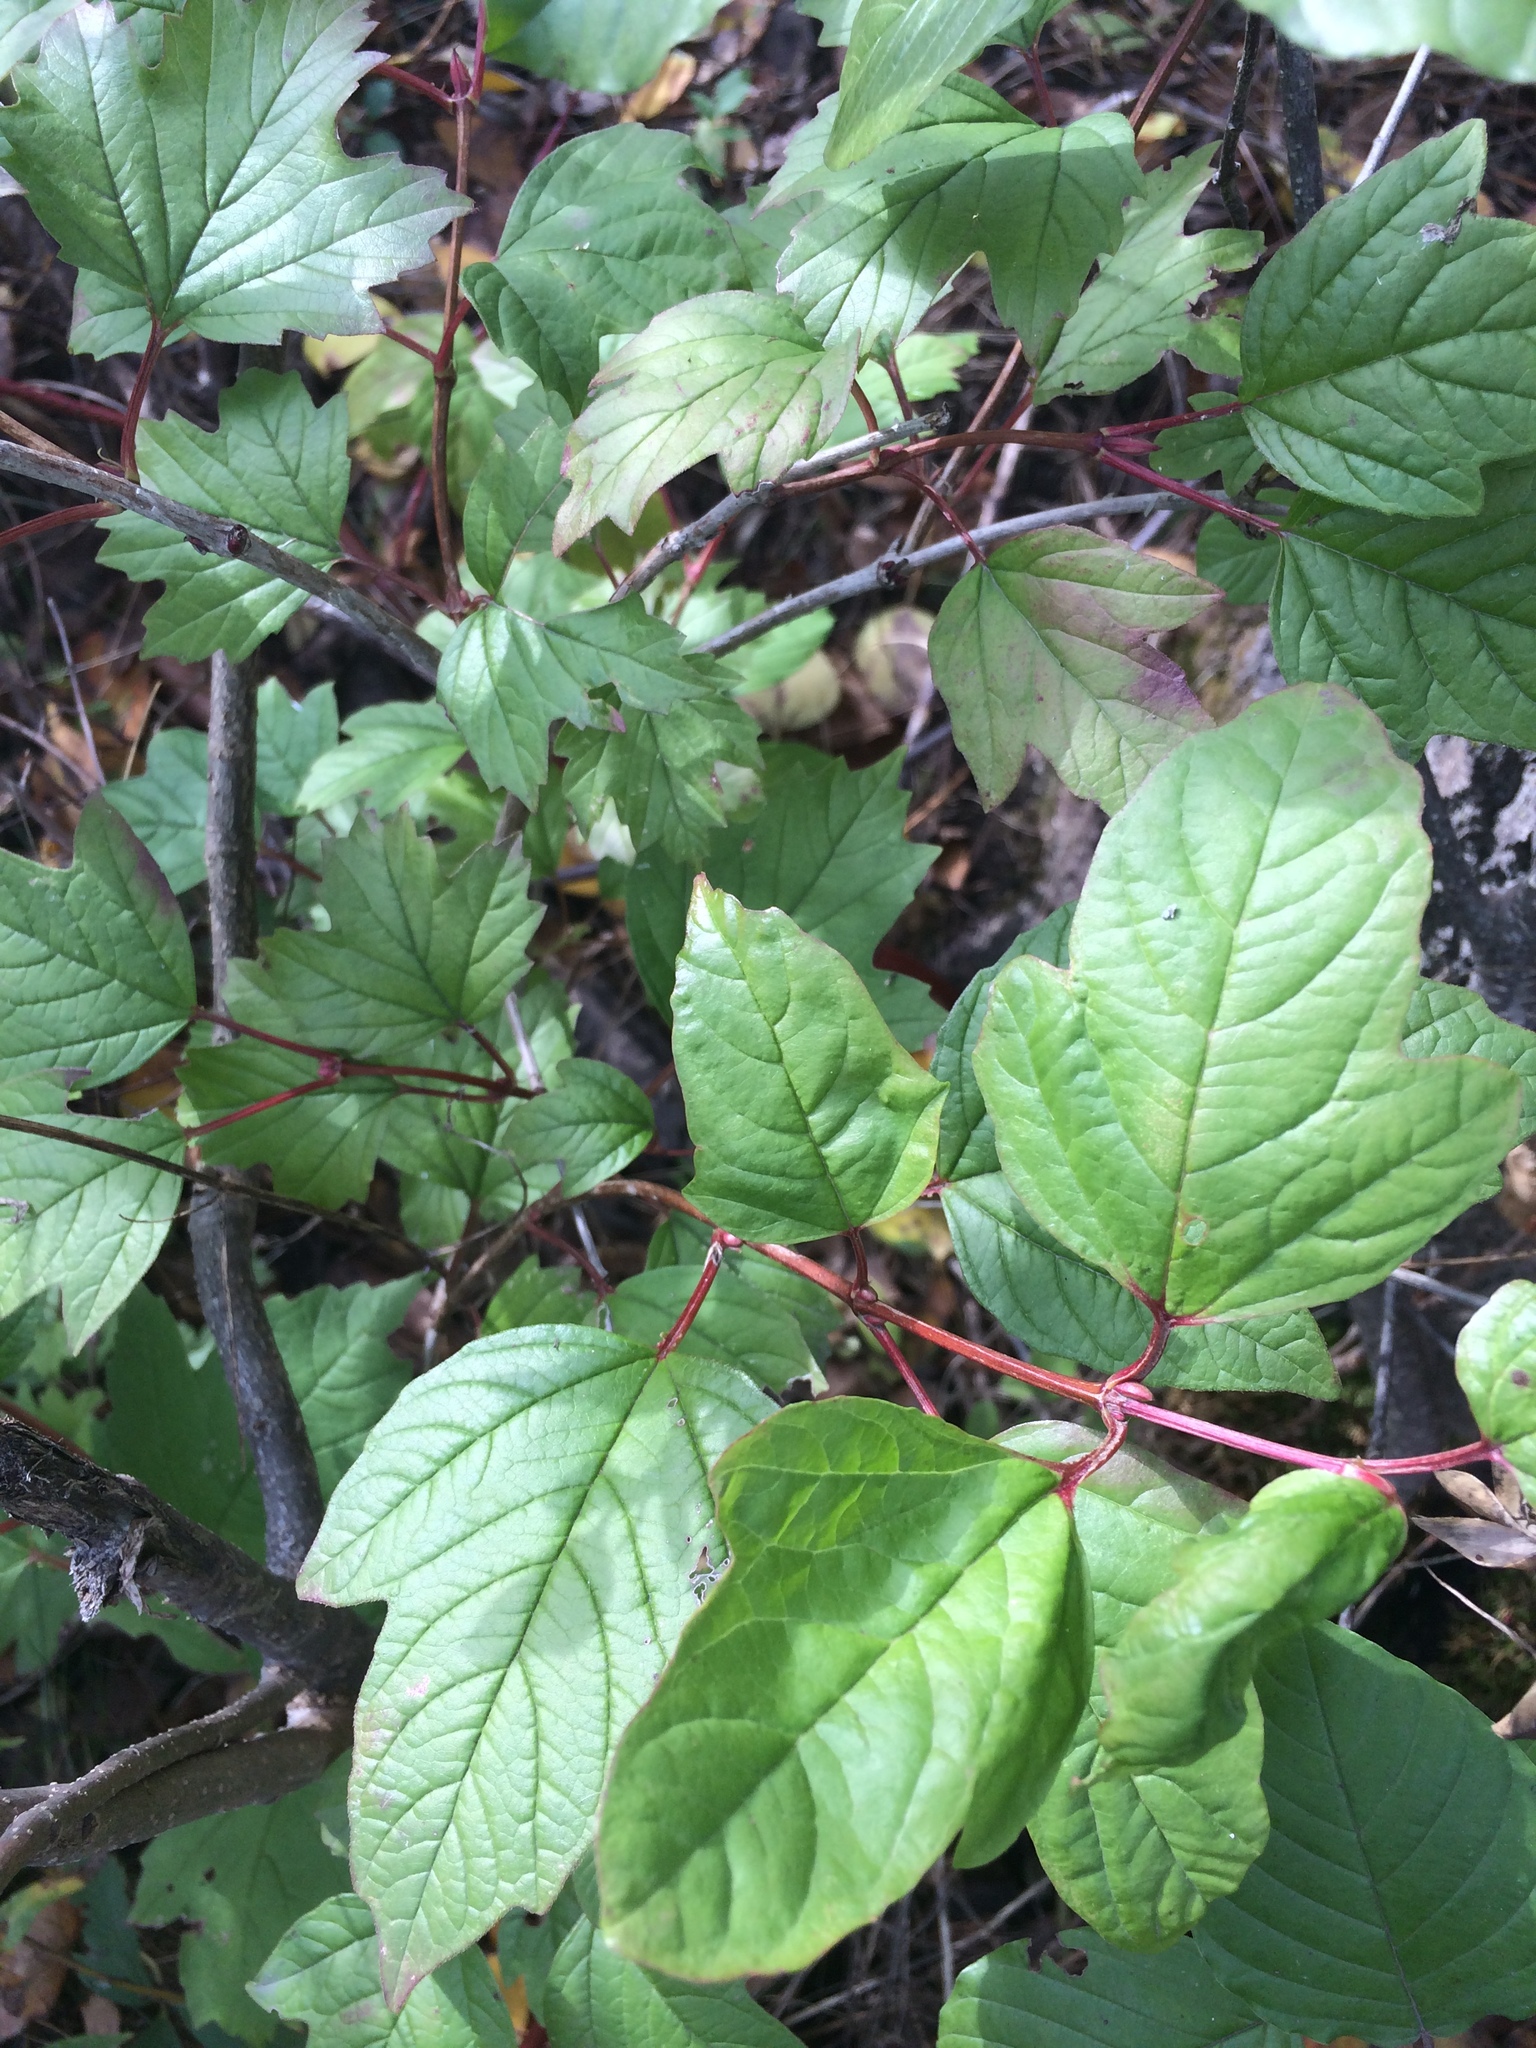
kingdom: Plantae
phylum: Tracheophyta
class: Magnoliopsida
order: Dipsacales
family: Viburnaceae
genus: Viburnum
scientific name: Viburnum trilobum
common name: American cranberrybush
